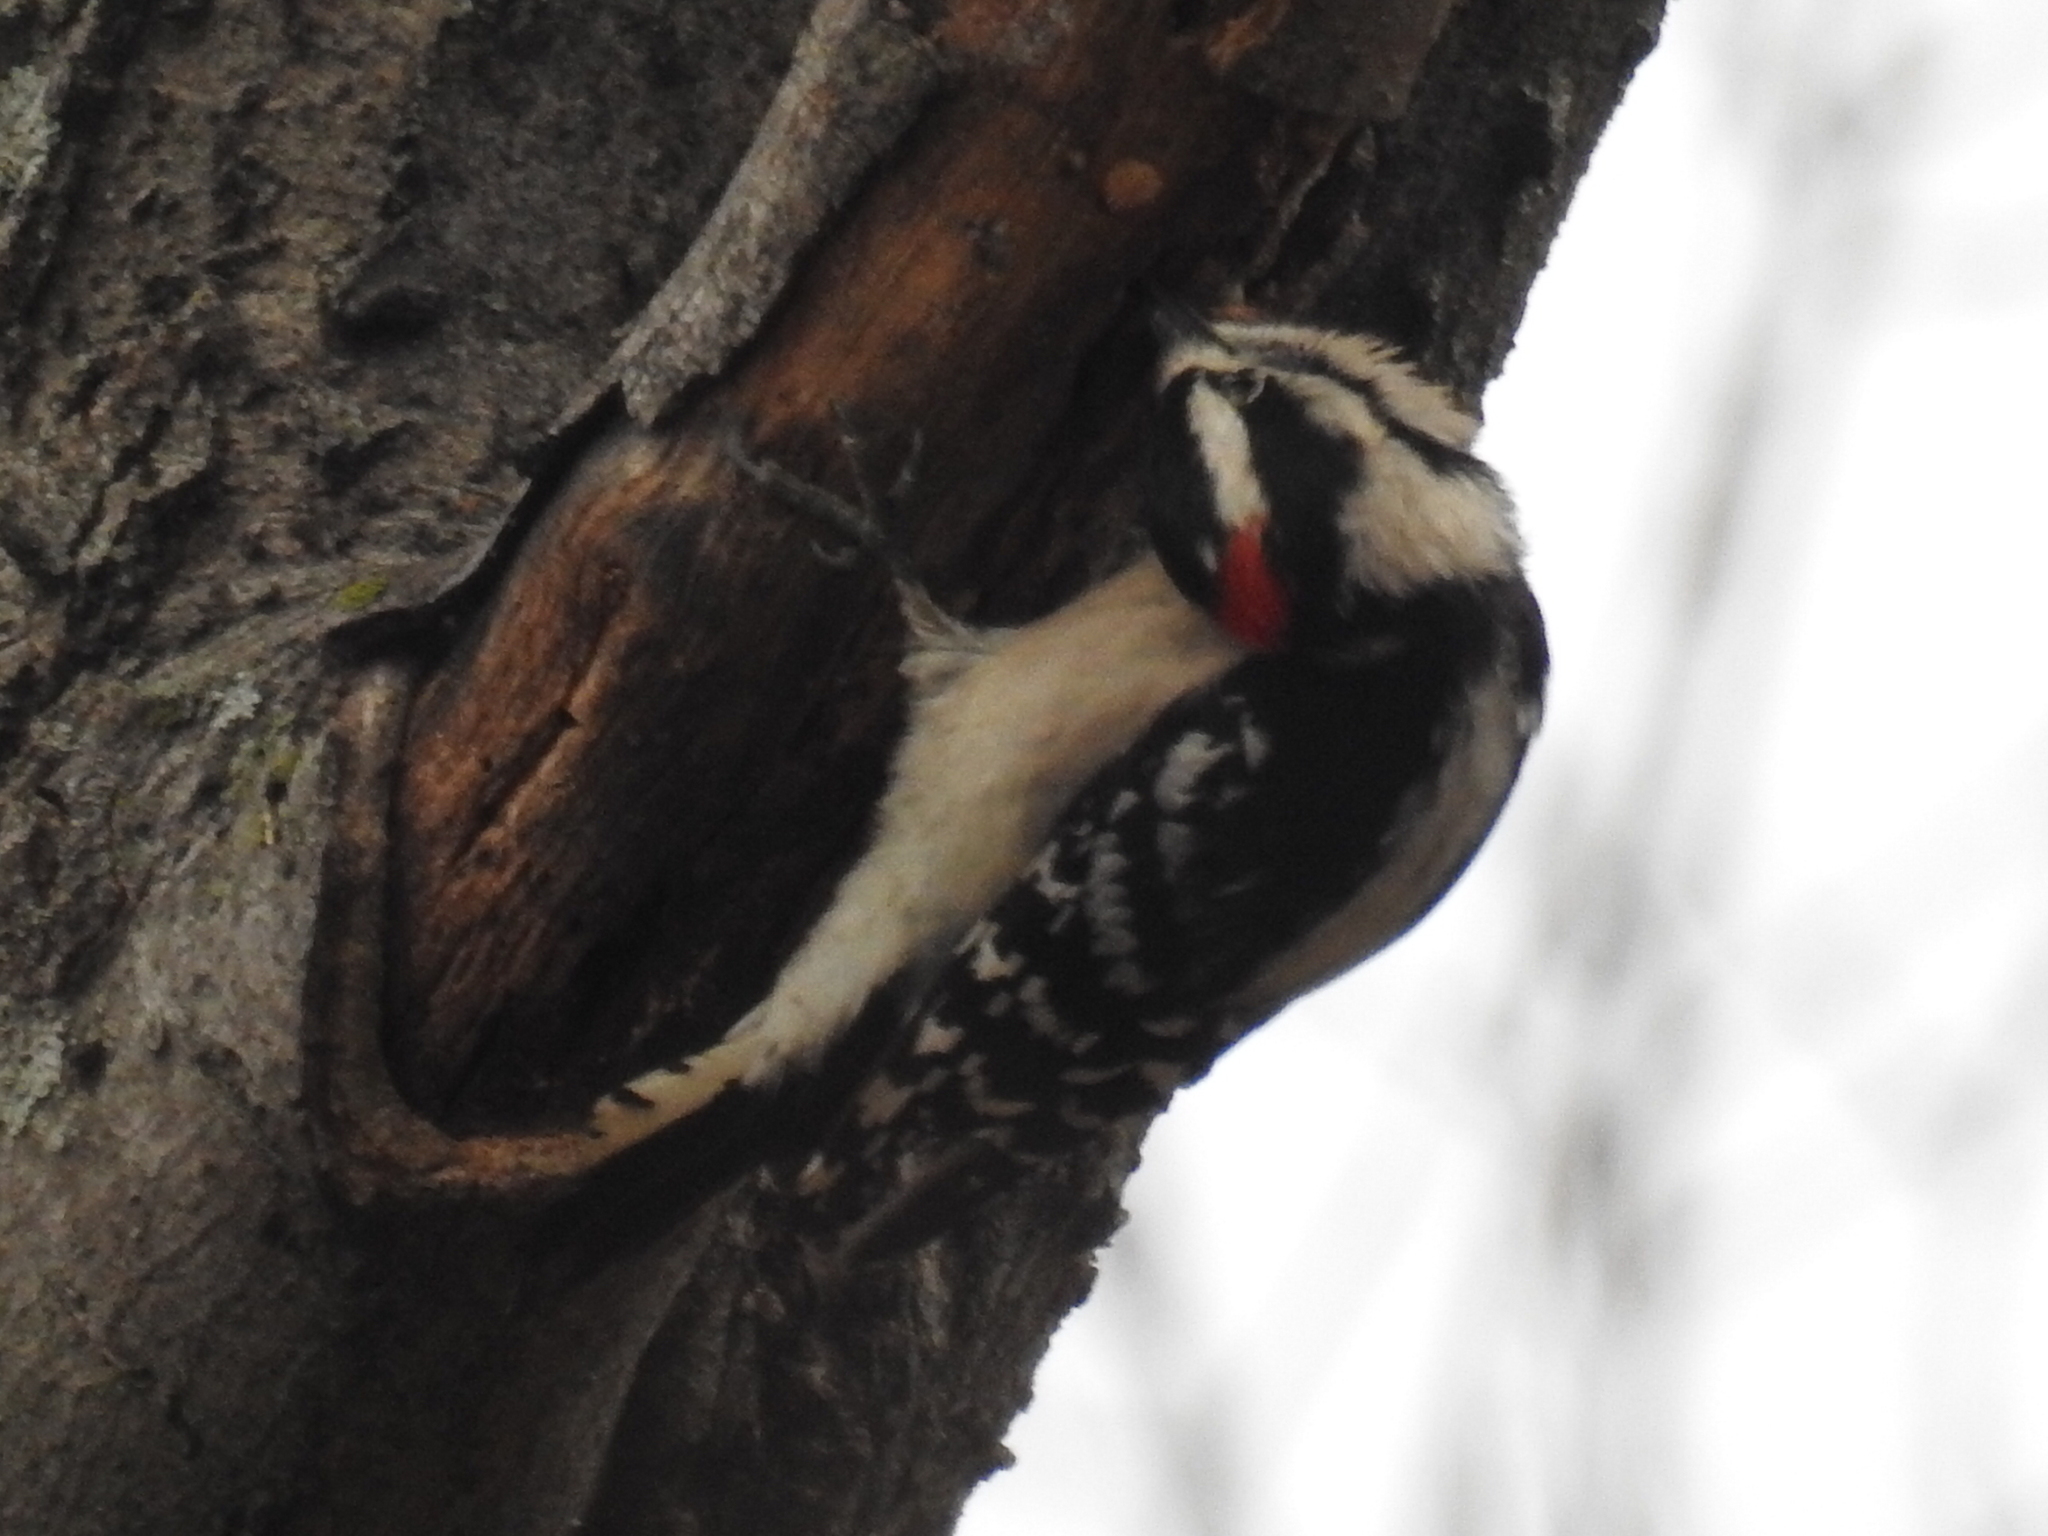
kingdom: Animalia
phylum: Chordata
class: Aves
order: Piciformes
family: Picidae
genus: Dryobates
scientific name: Dryobates pubescens
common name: Downy woodpecker
